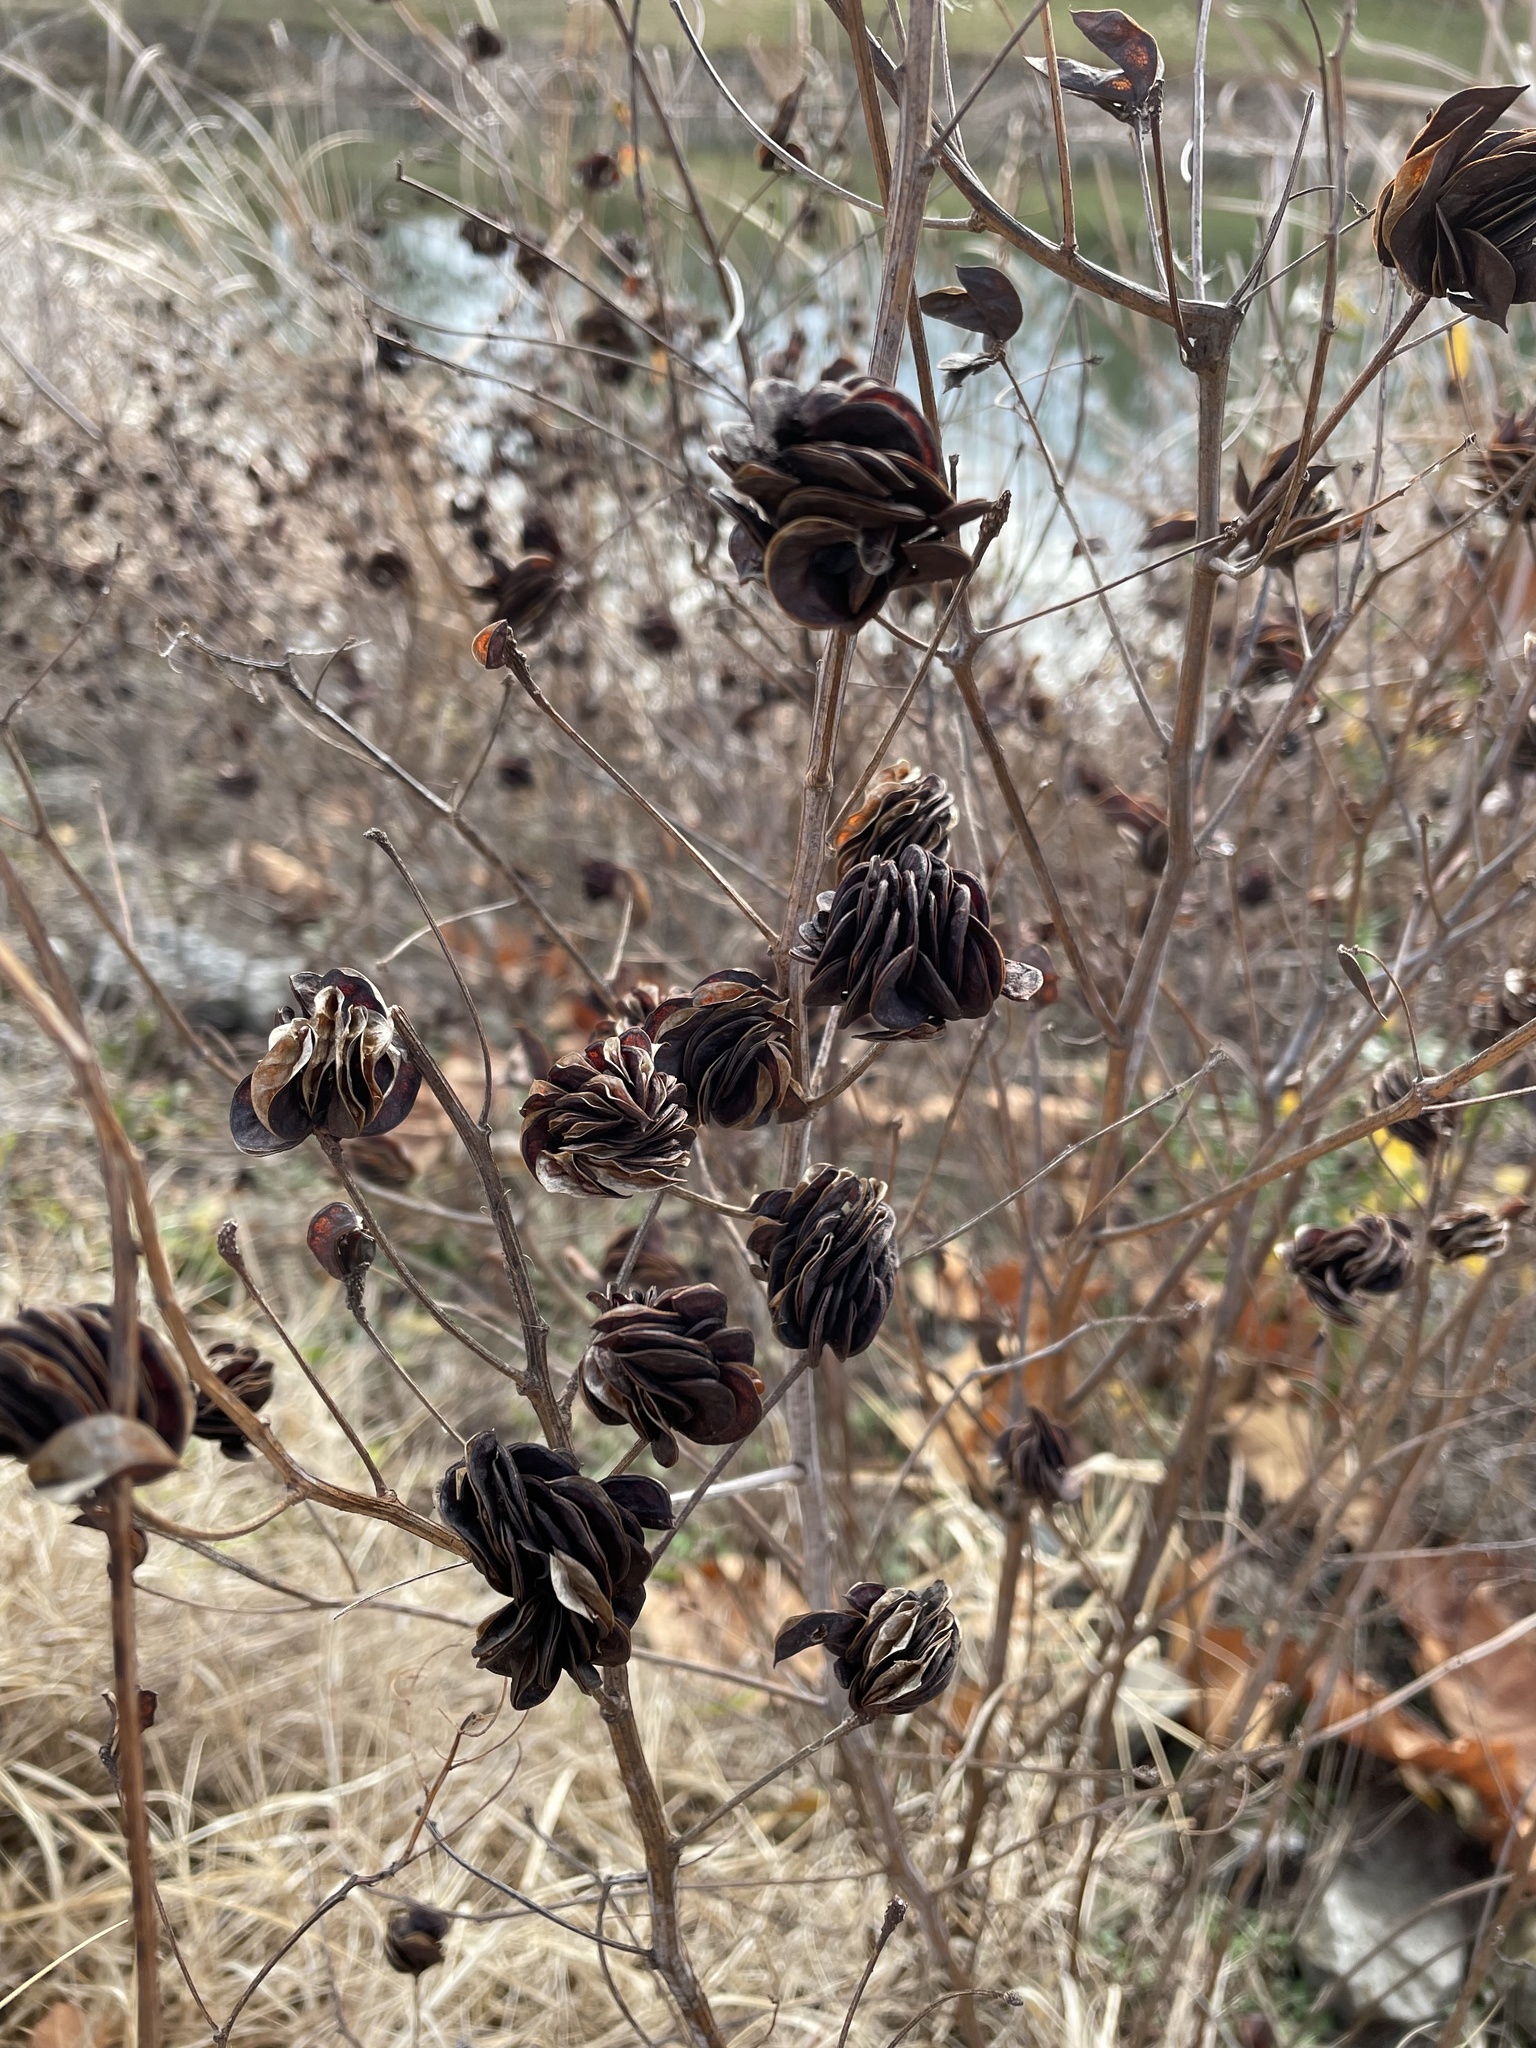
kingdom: Plantae
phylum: Tracheophyta
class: Magnoliopsida
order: Fabales
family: Fabaceae
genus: Desmanthus
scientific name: Desmanthus illinoensis
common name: Illinois bundle-flower
